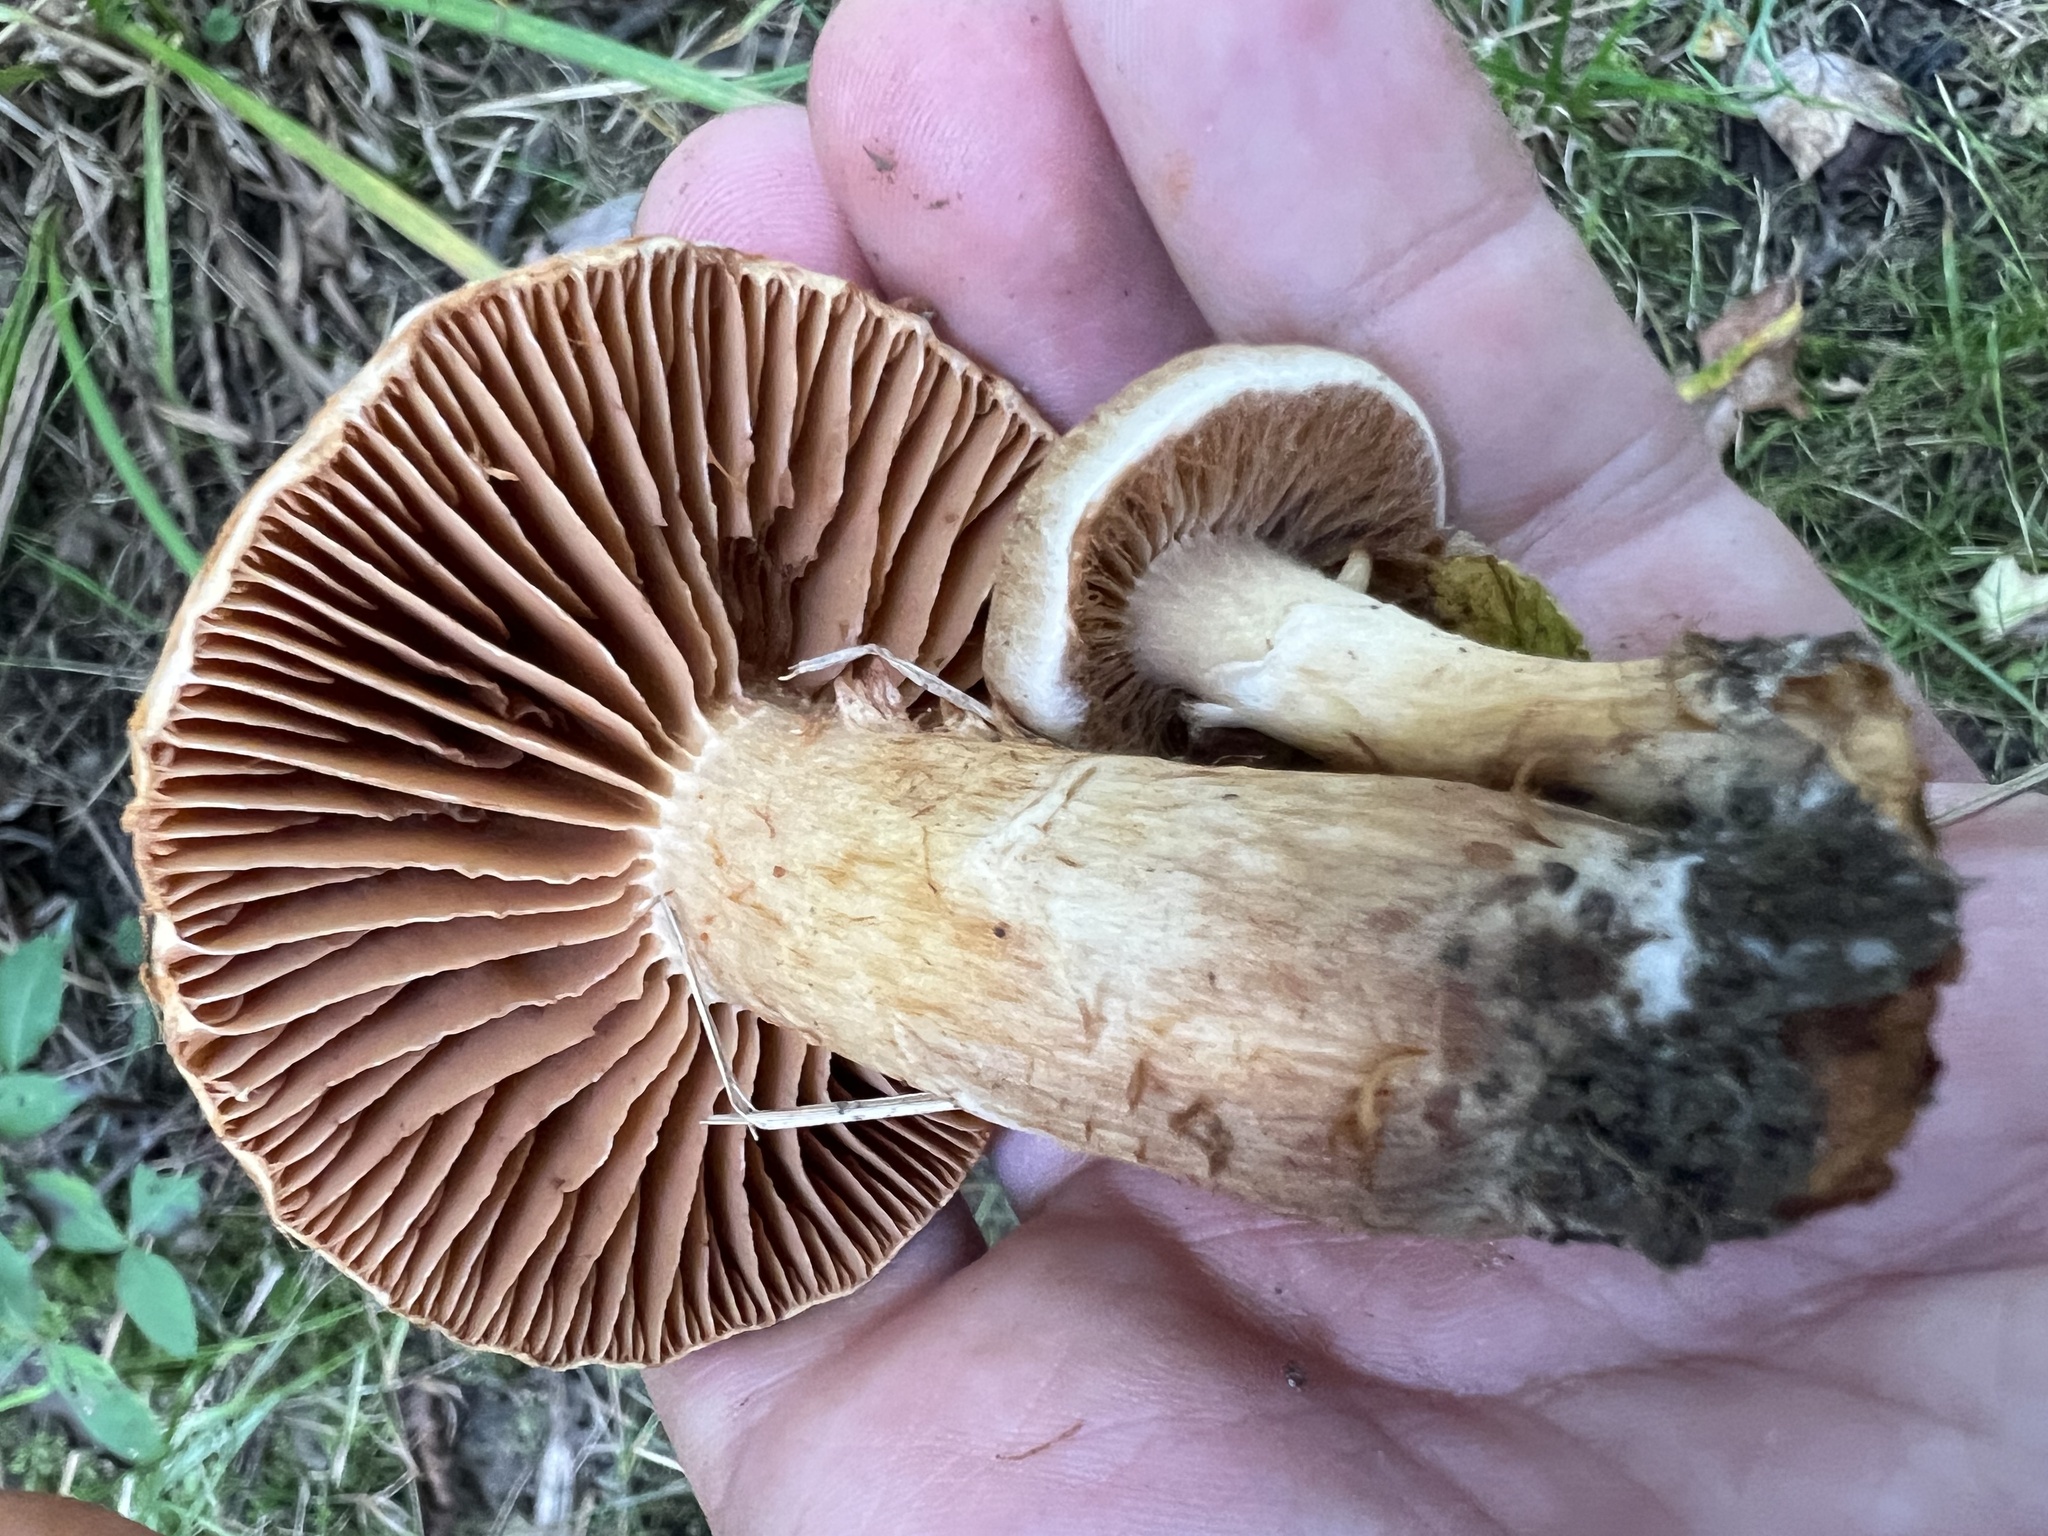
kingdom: Fungi
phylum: Basidiomycota
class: Agaricomycetes
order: Agaricales
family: Cortinariaceae
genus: Cortinarius
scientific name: Cortinarius
